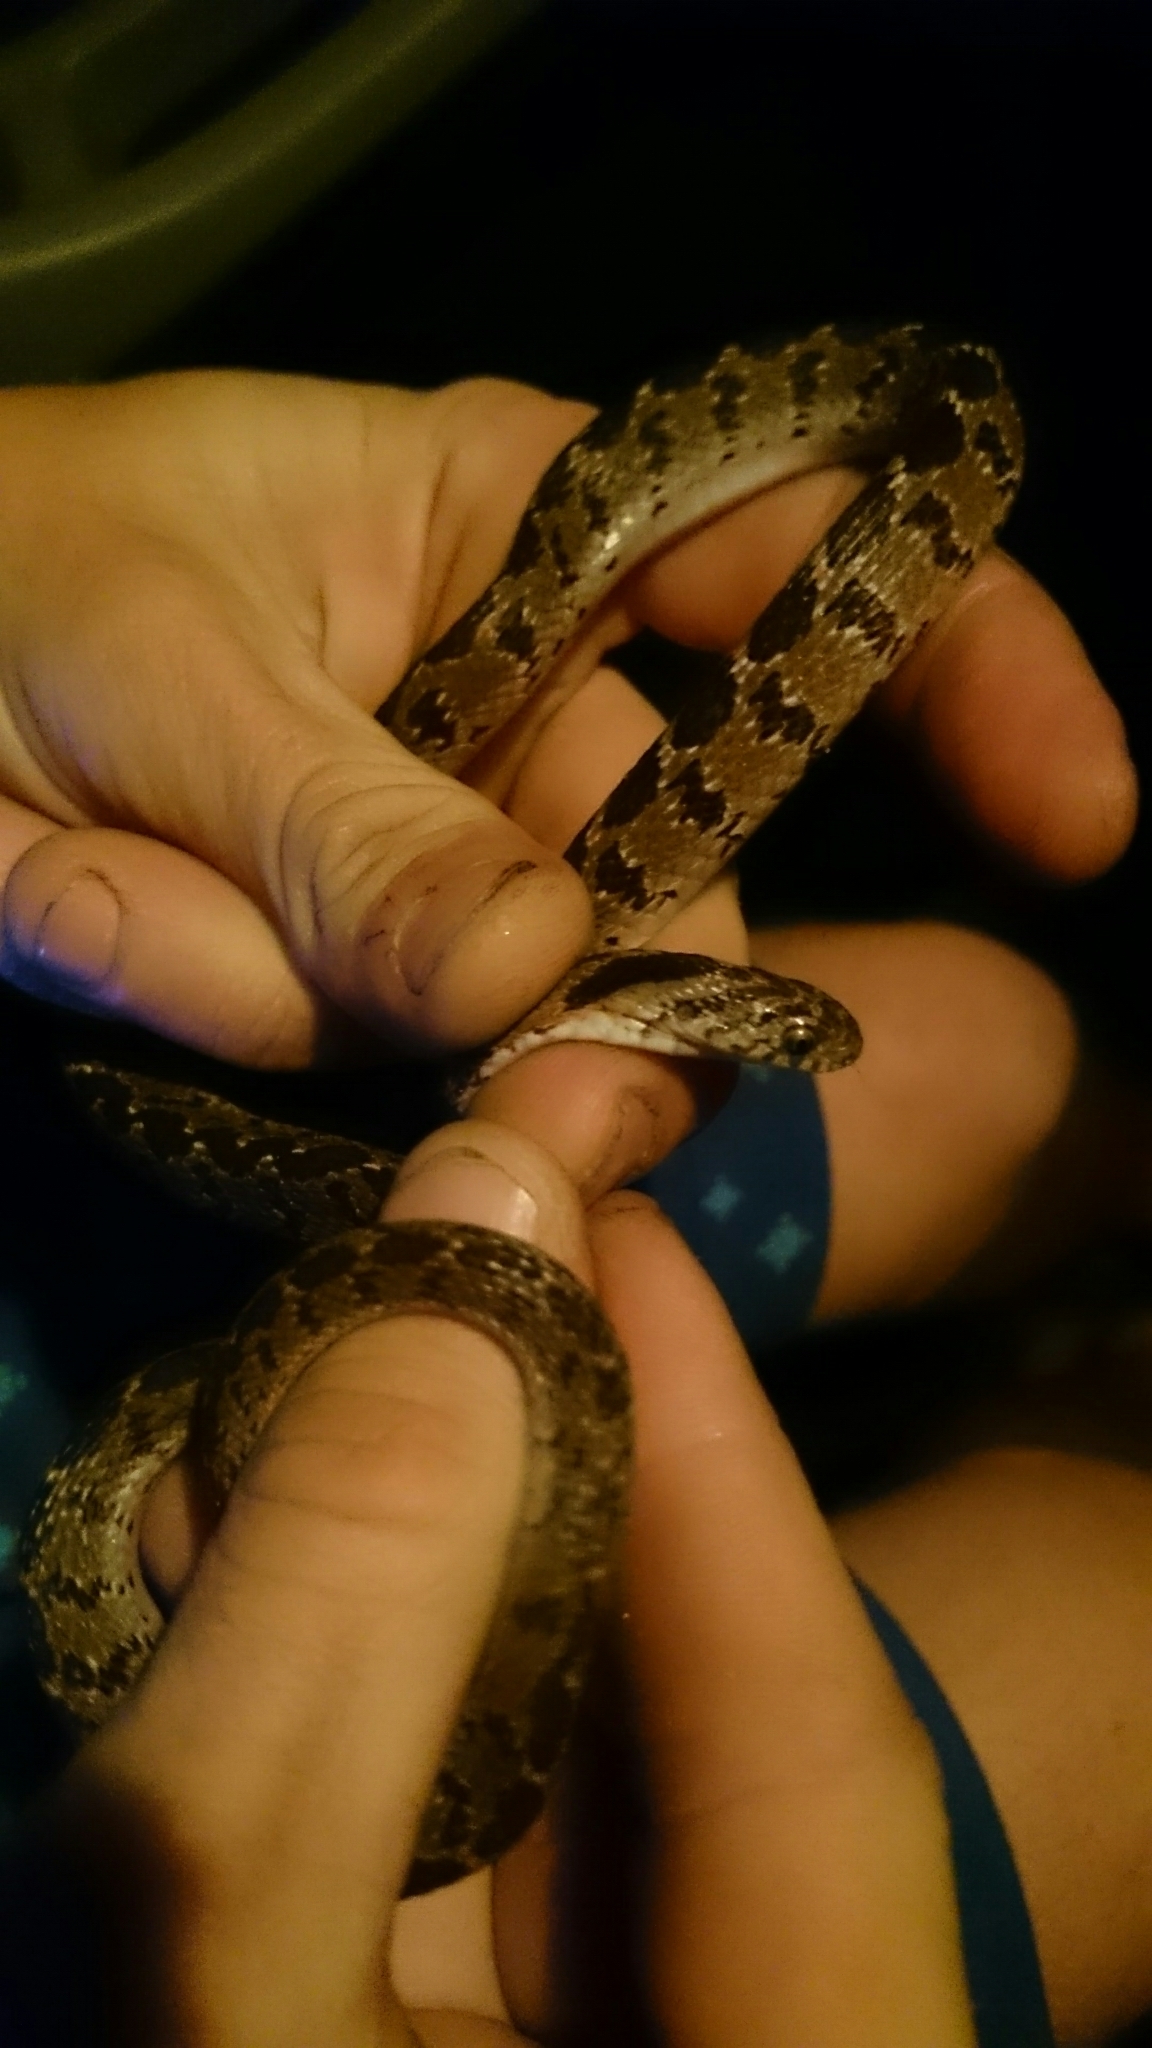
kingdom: Animalia
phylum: Chordata
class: Squamata
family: Colubridae
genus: Dasypeltis
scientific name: Dasypeltis scabra
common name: Common egg eater
